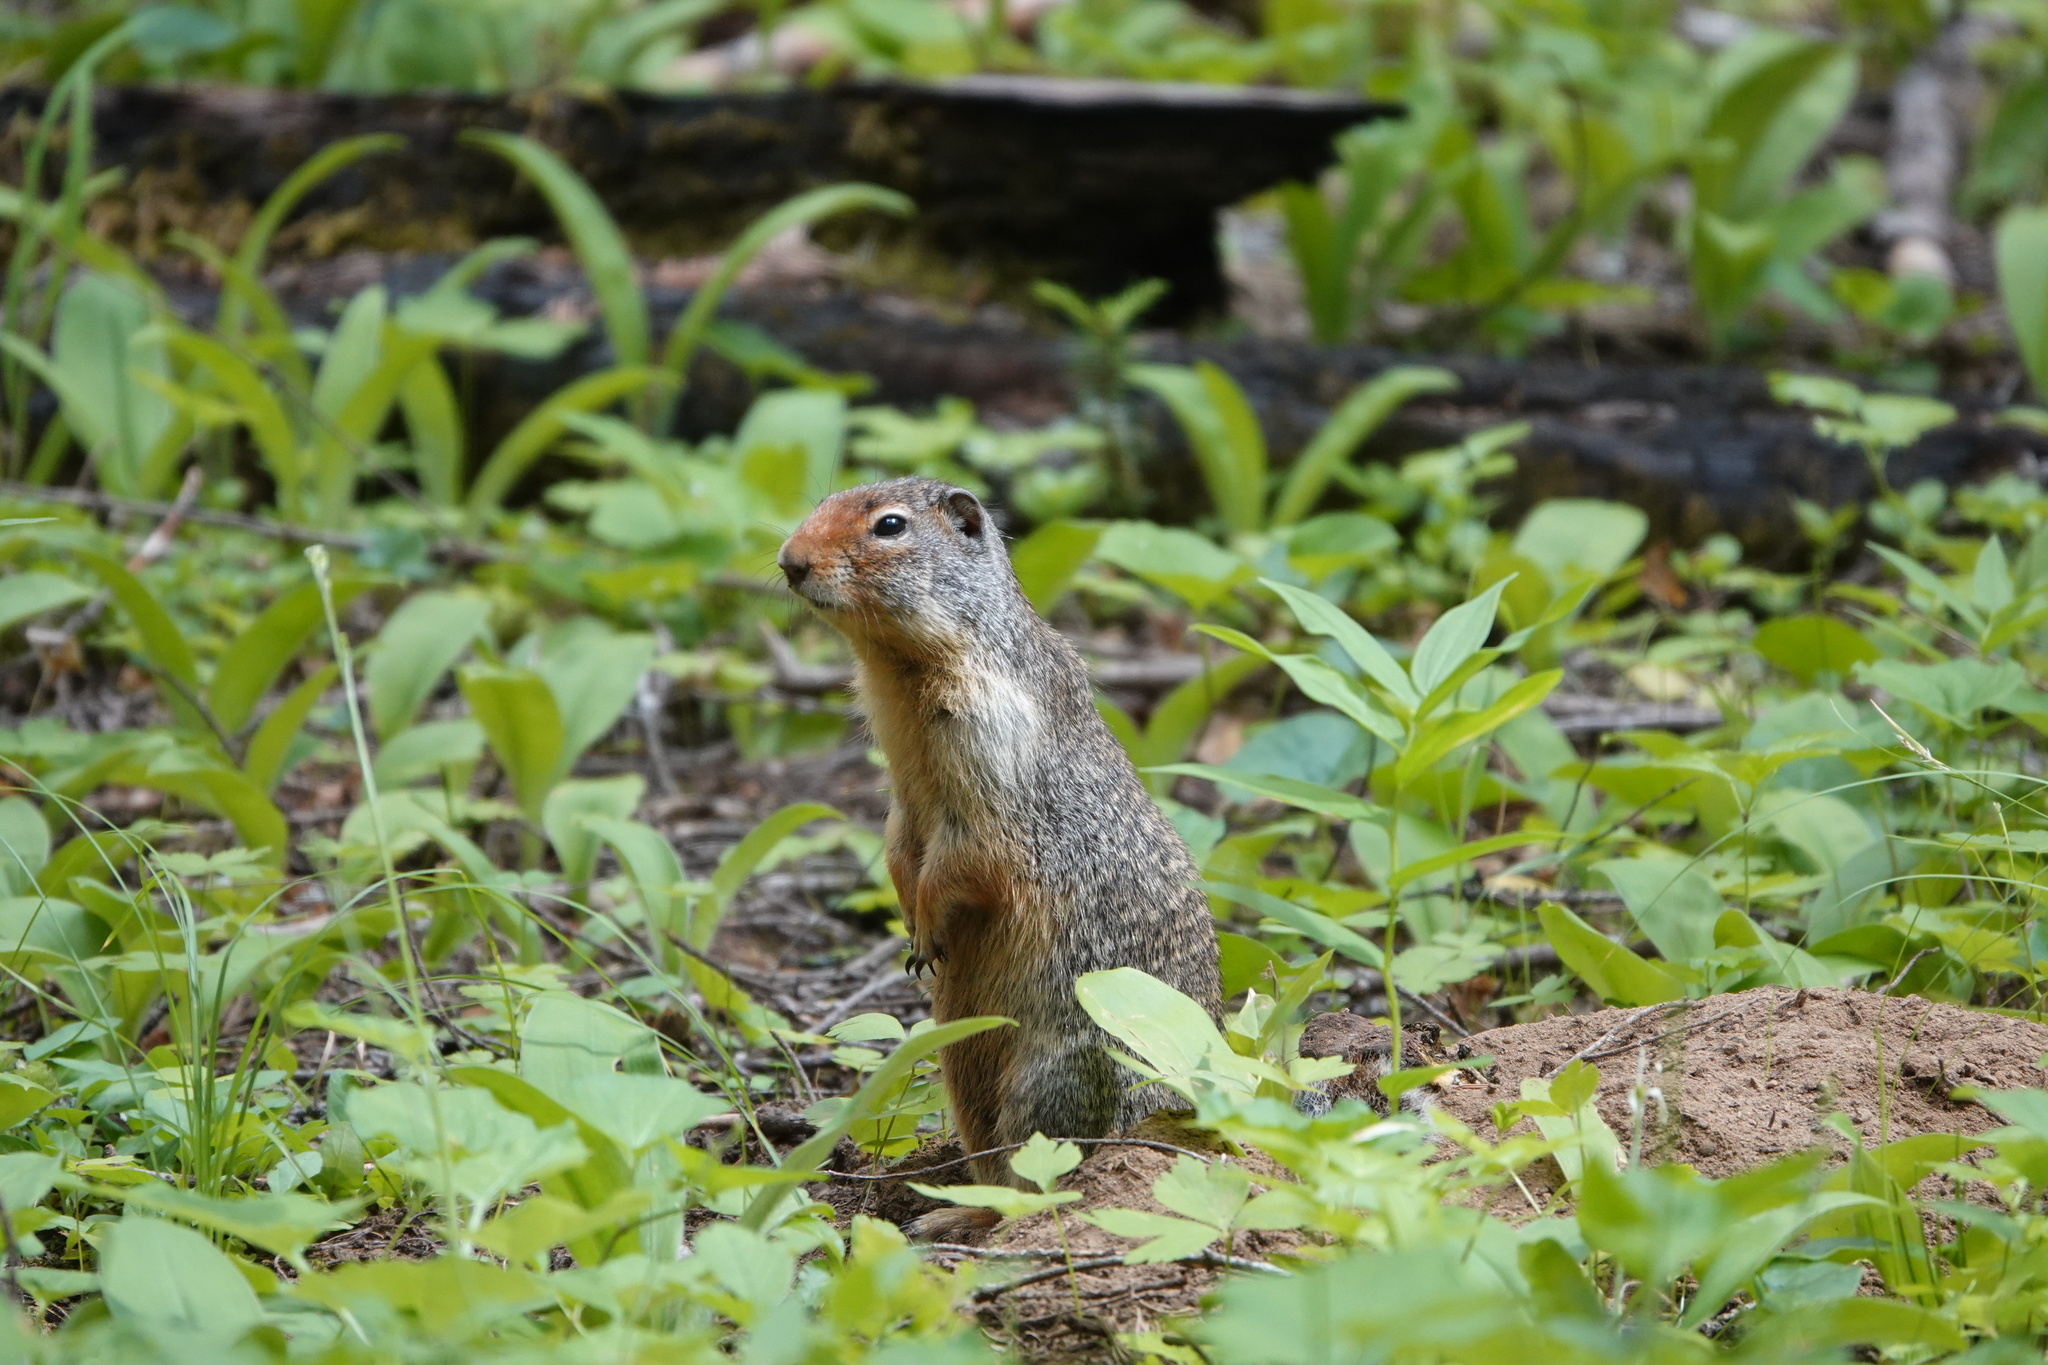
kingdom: Animalia
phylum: Chordata
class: Mammalia
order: Rodentia
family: Sciuridae
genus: Urocitellus
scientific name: Urocitellus columbianus
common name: Columbian ground squirrel
